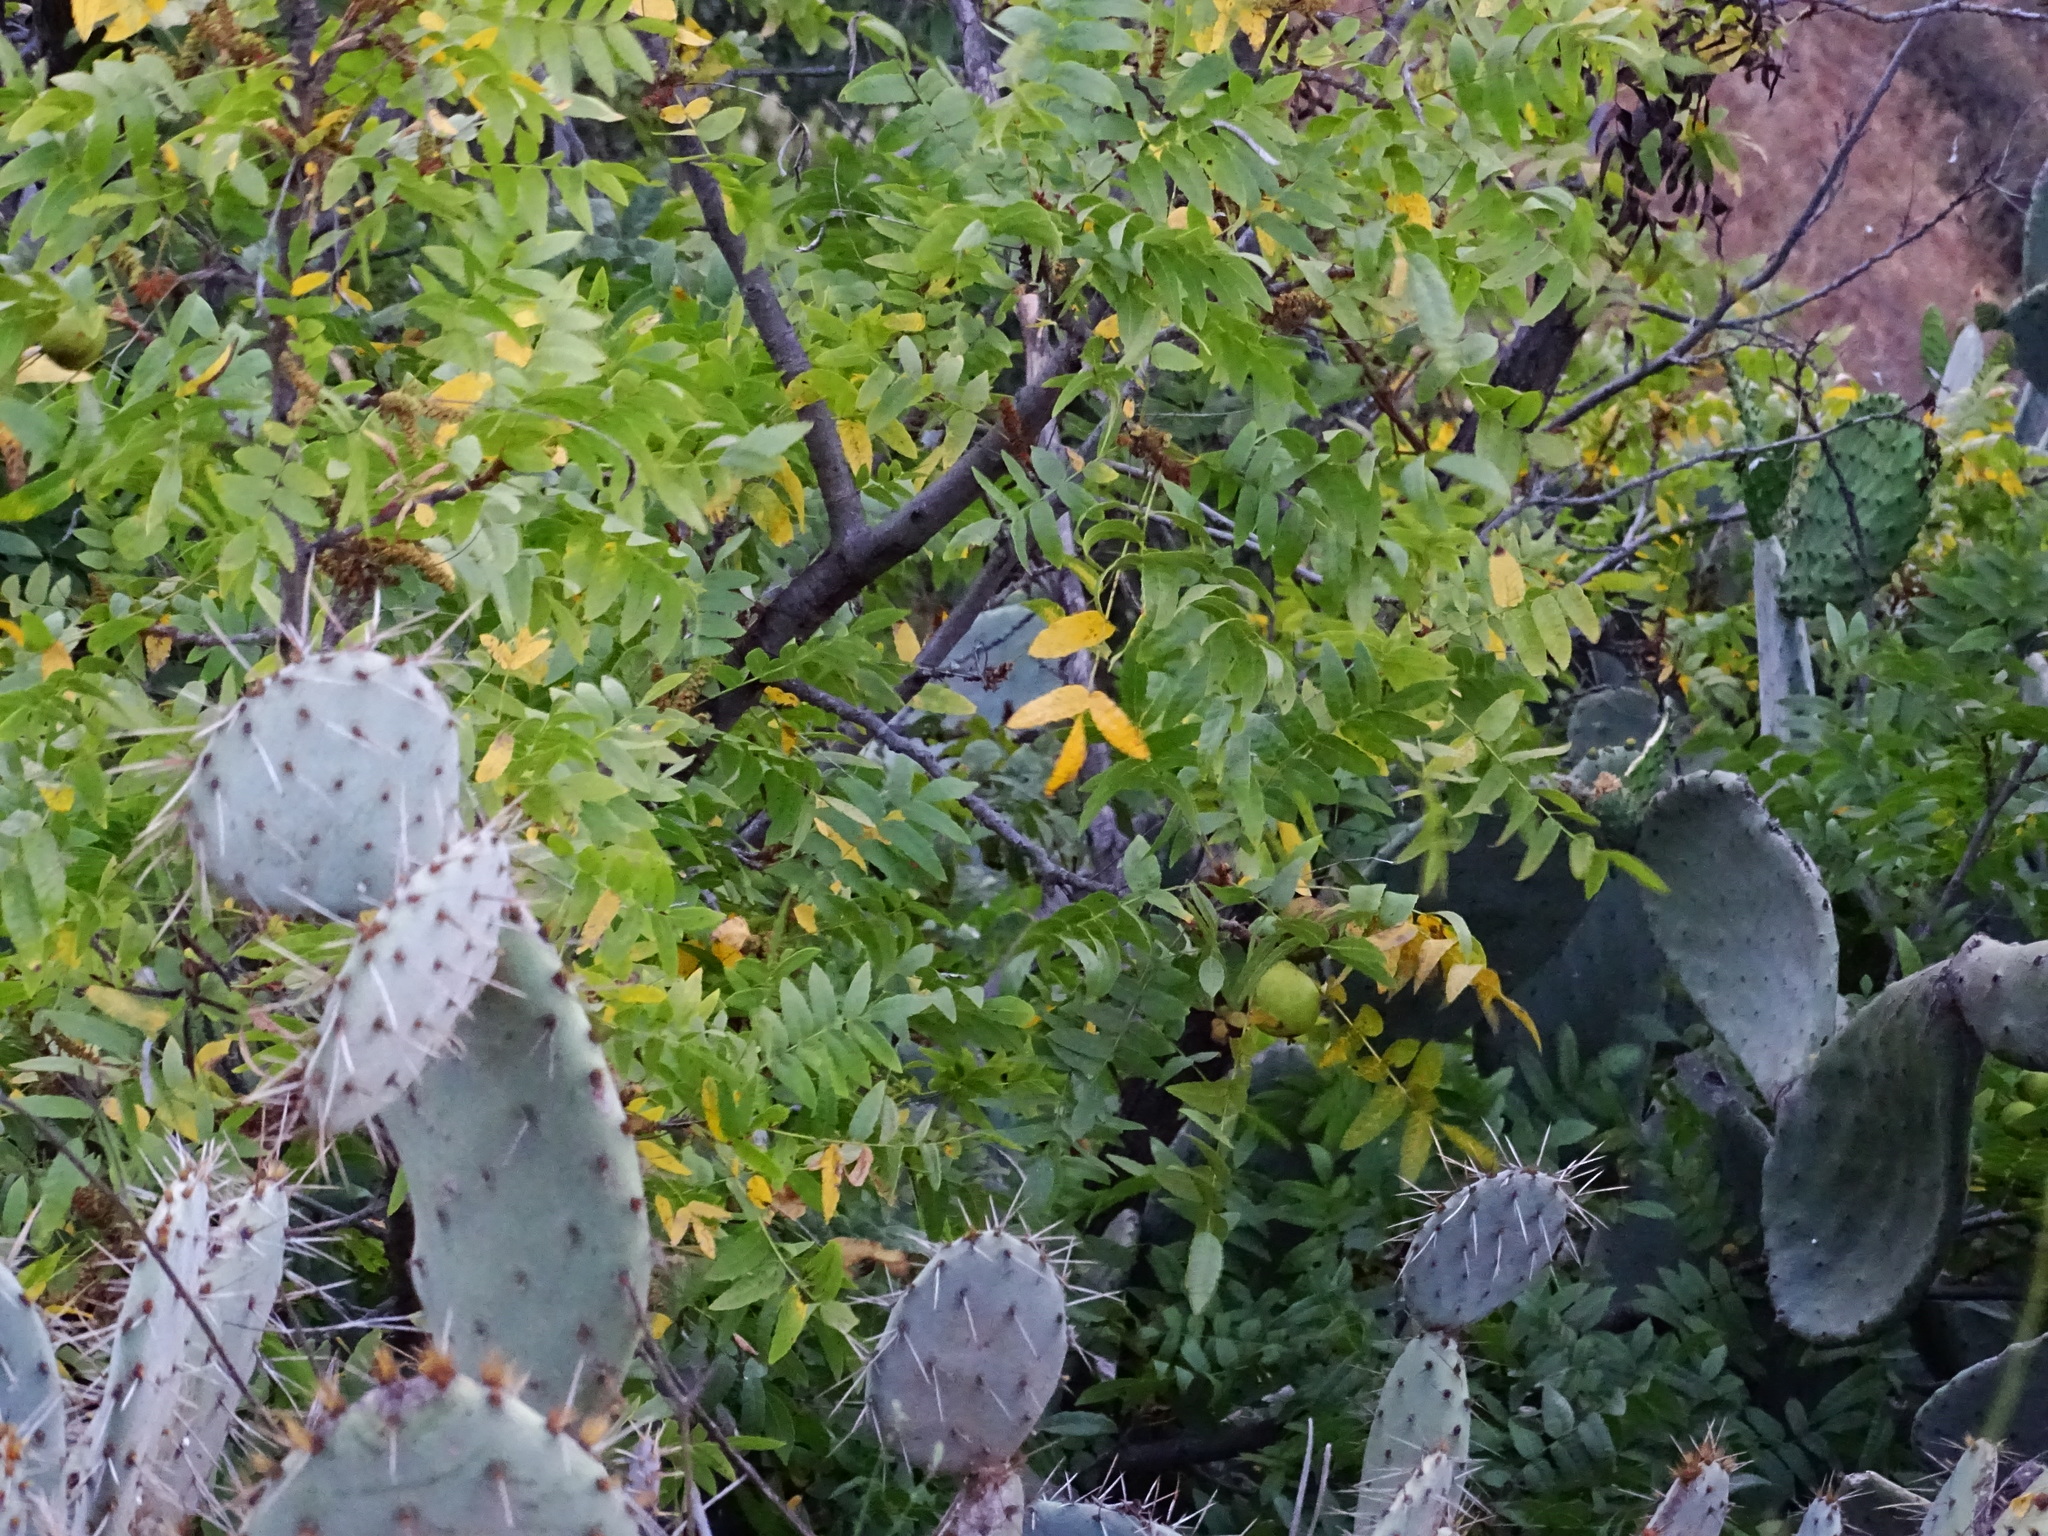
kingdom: Plantae
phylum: Tracheophyta
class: Magnoliopsida
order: Fagales
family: Juglandaceae
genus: Juglans
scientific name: Juglans californica
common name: Southern california black walnut
